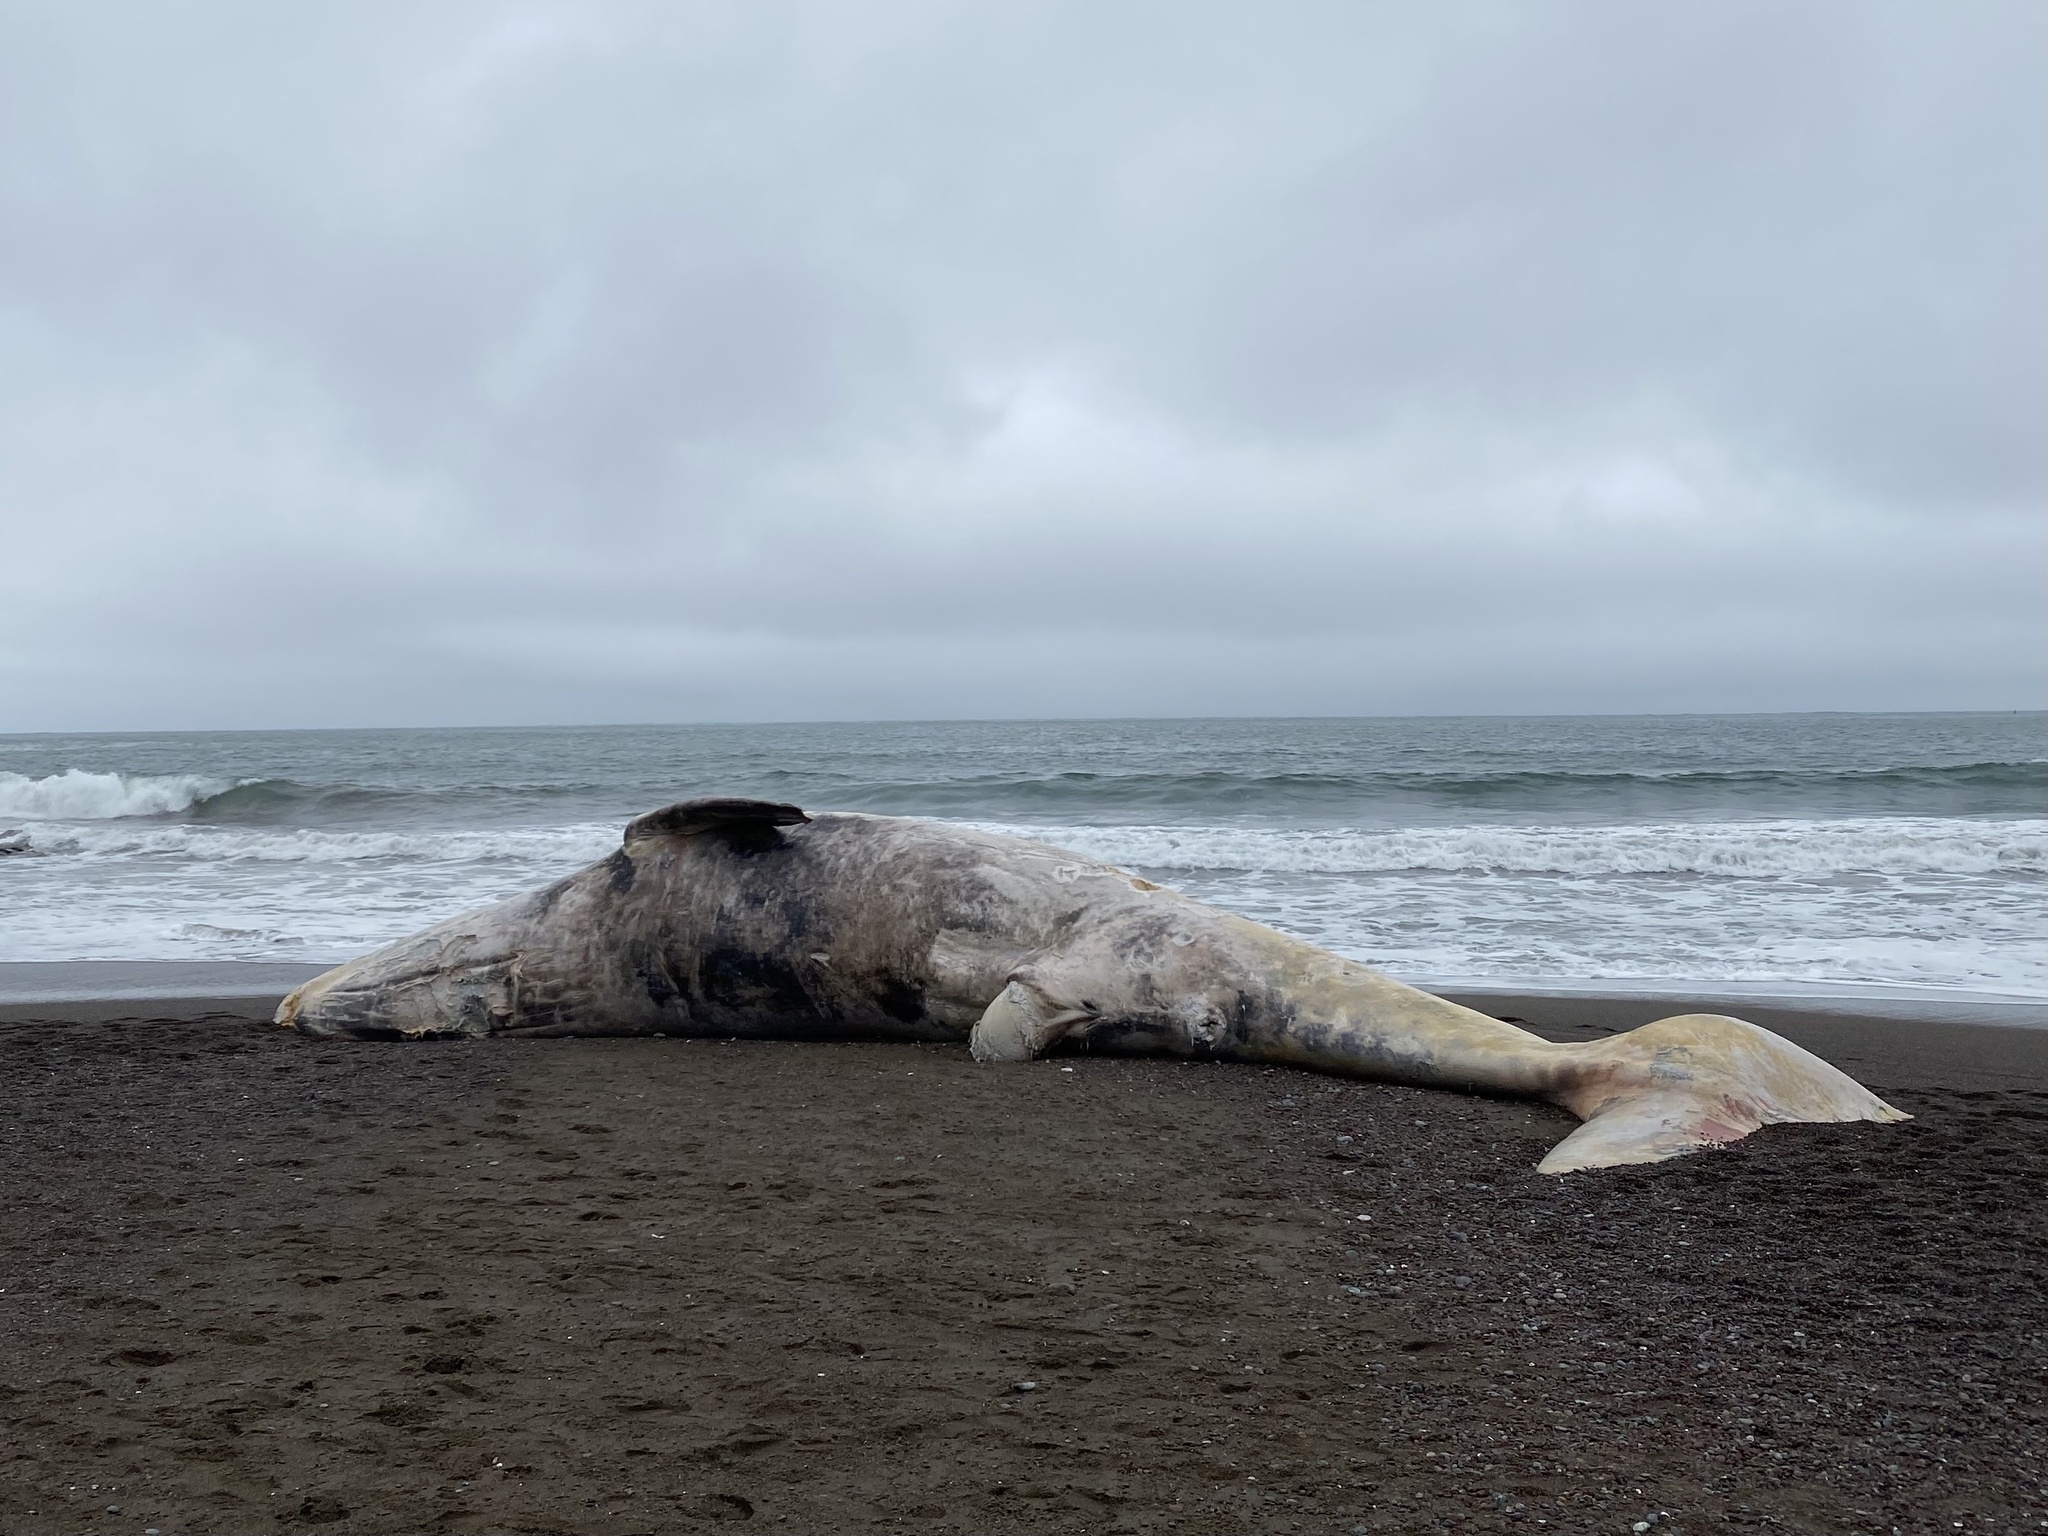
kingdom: Animalia
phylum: Chordata
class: Mammalia
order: Cetacea
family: Eschrichtiidae
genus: Eschrichtius
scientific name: Eschrichtius robustus
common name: Gray whale
